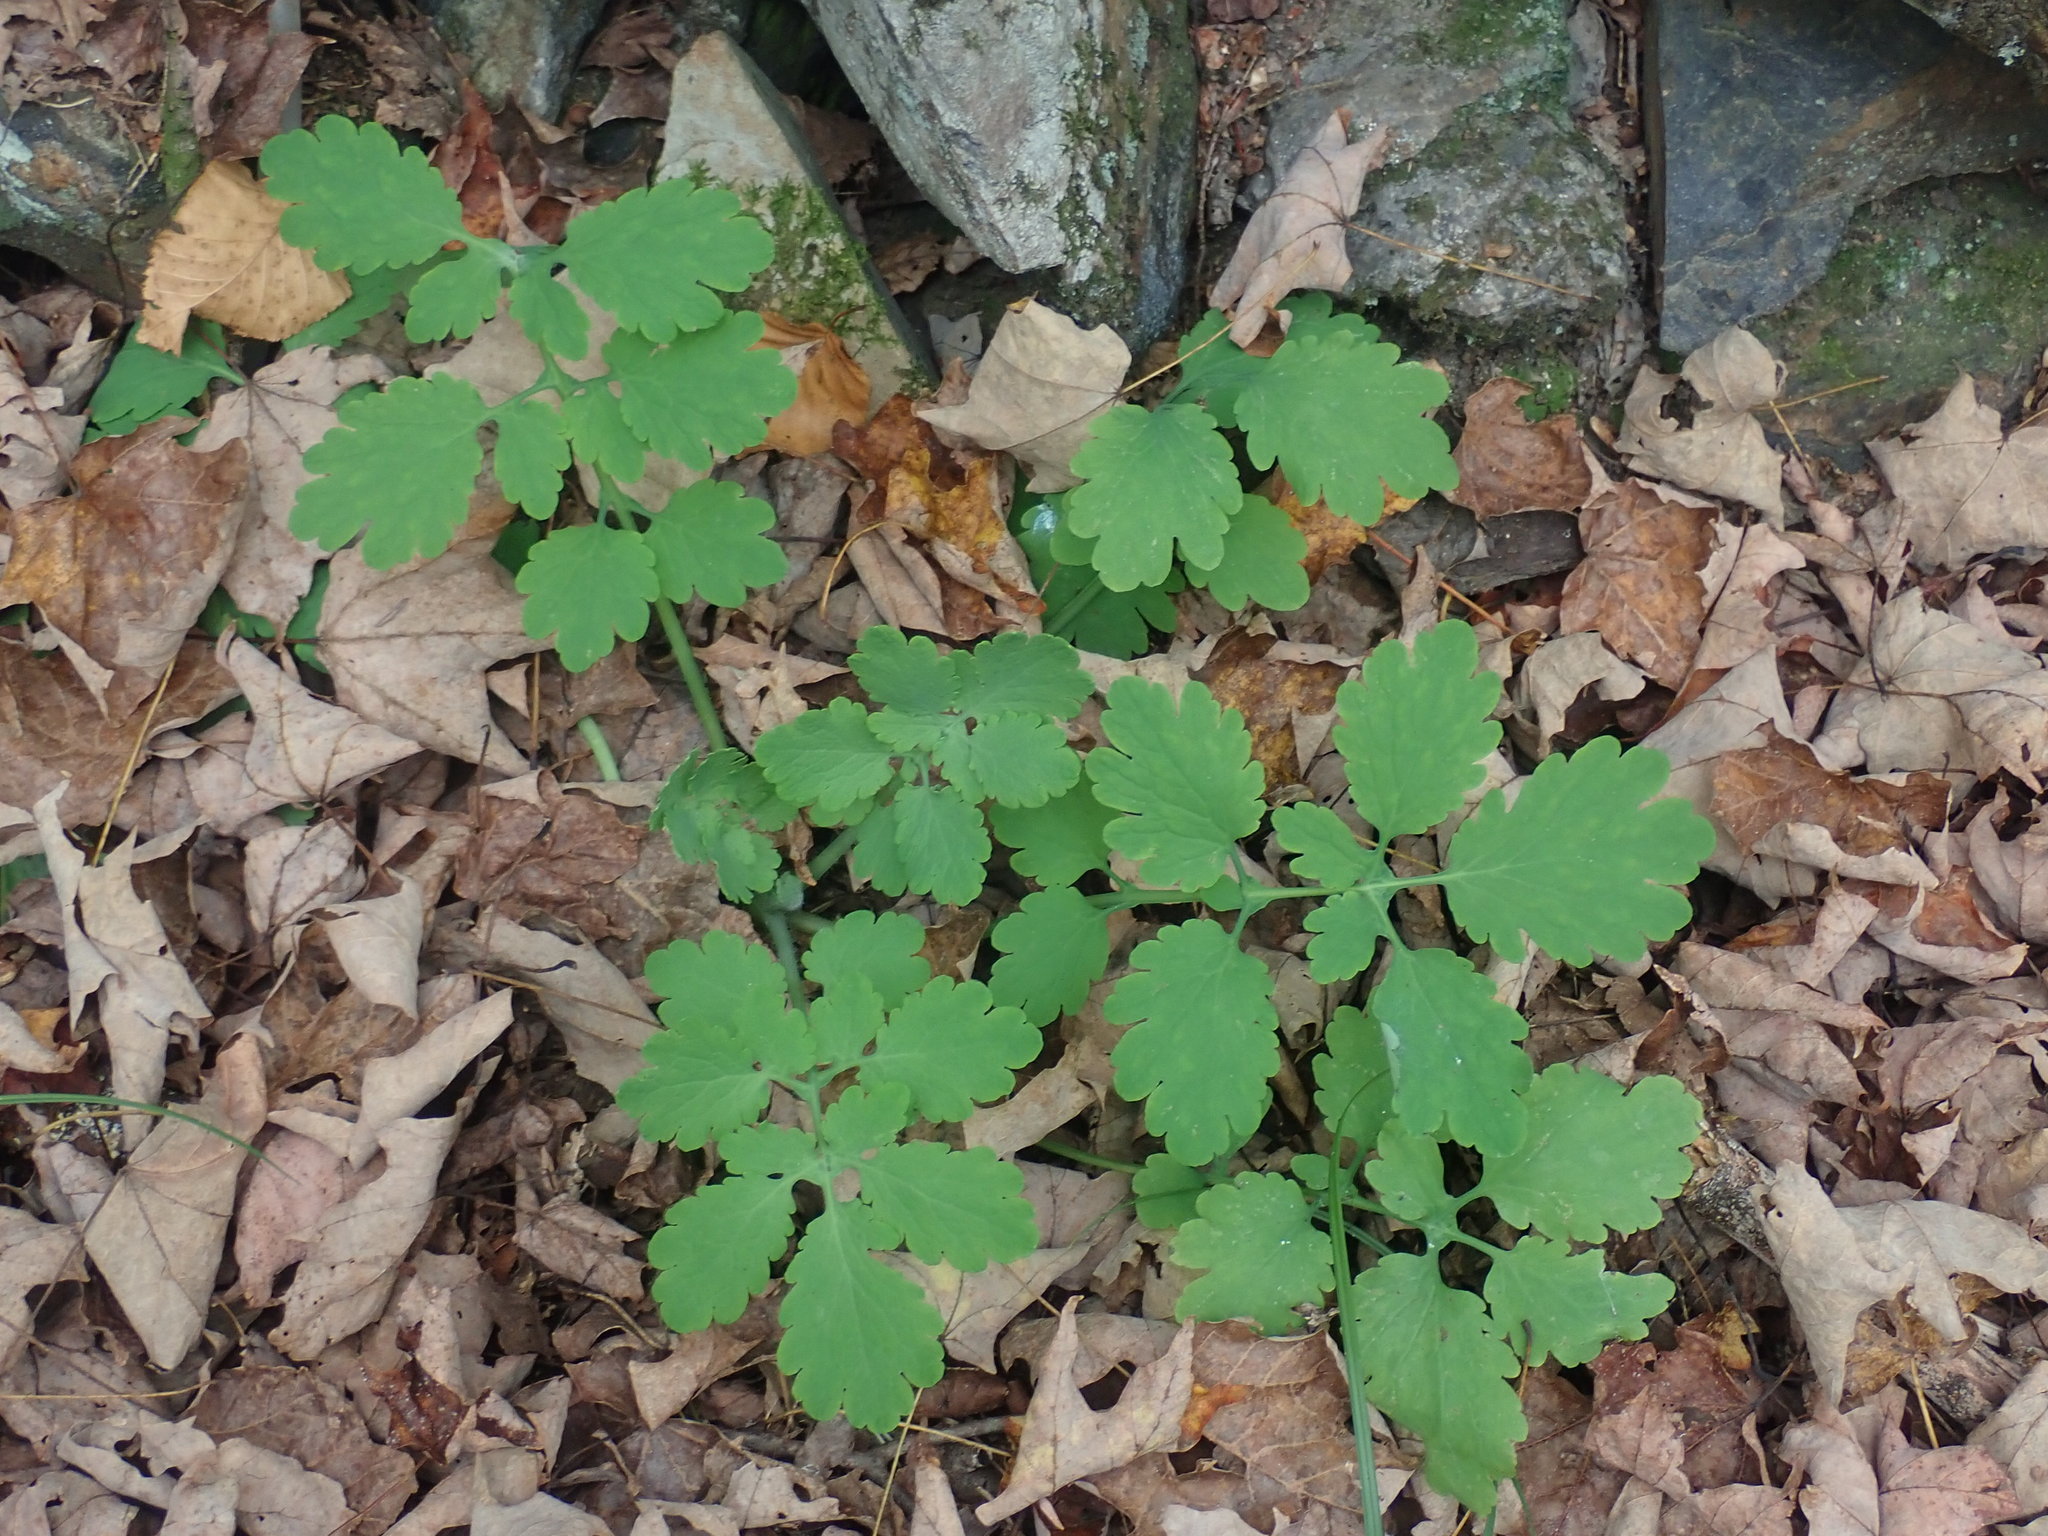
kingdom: Plantae
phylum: Tracheophyta
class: Magnoliopsida
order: Ranunculales
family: Papaveraceae
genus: Chelidonium
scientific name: Chelidonium majus
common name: Greater celandine
